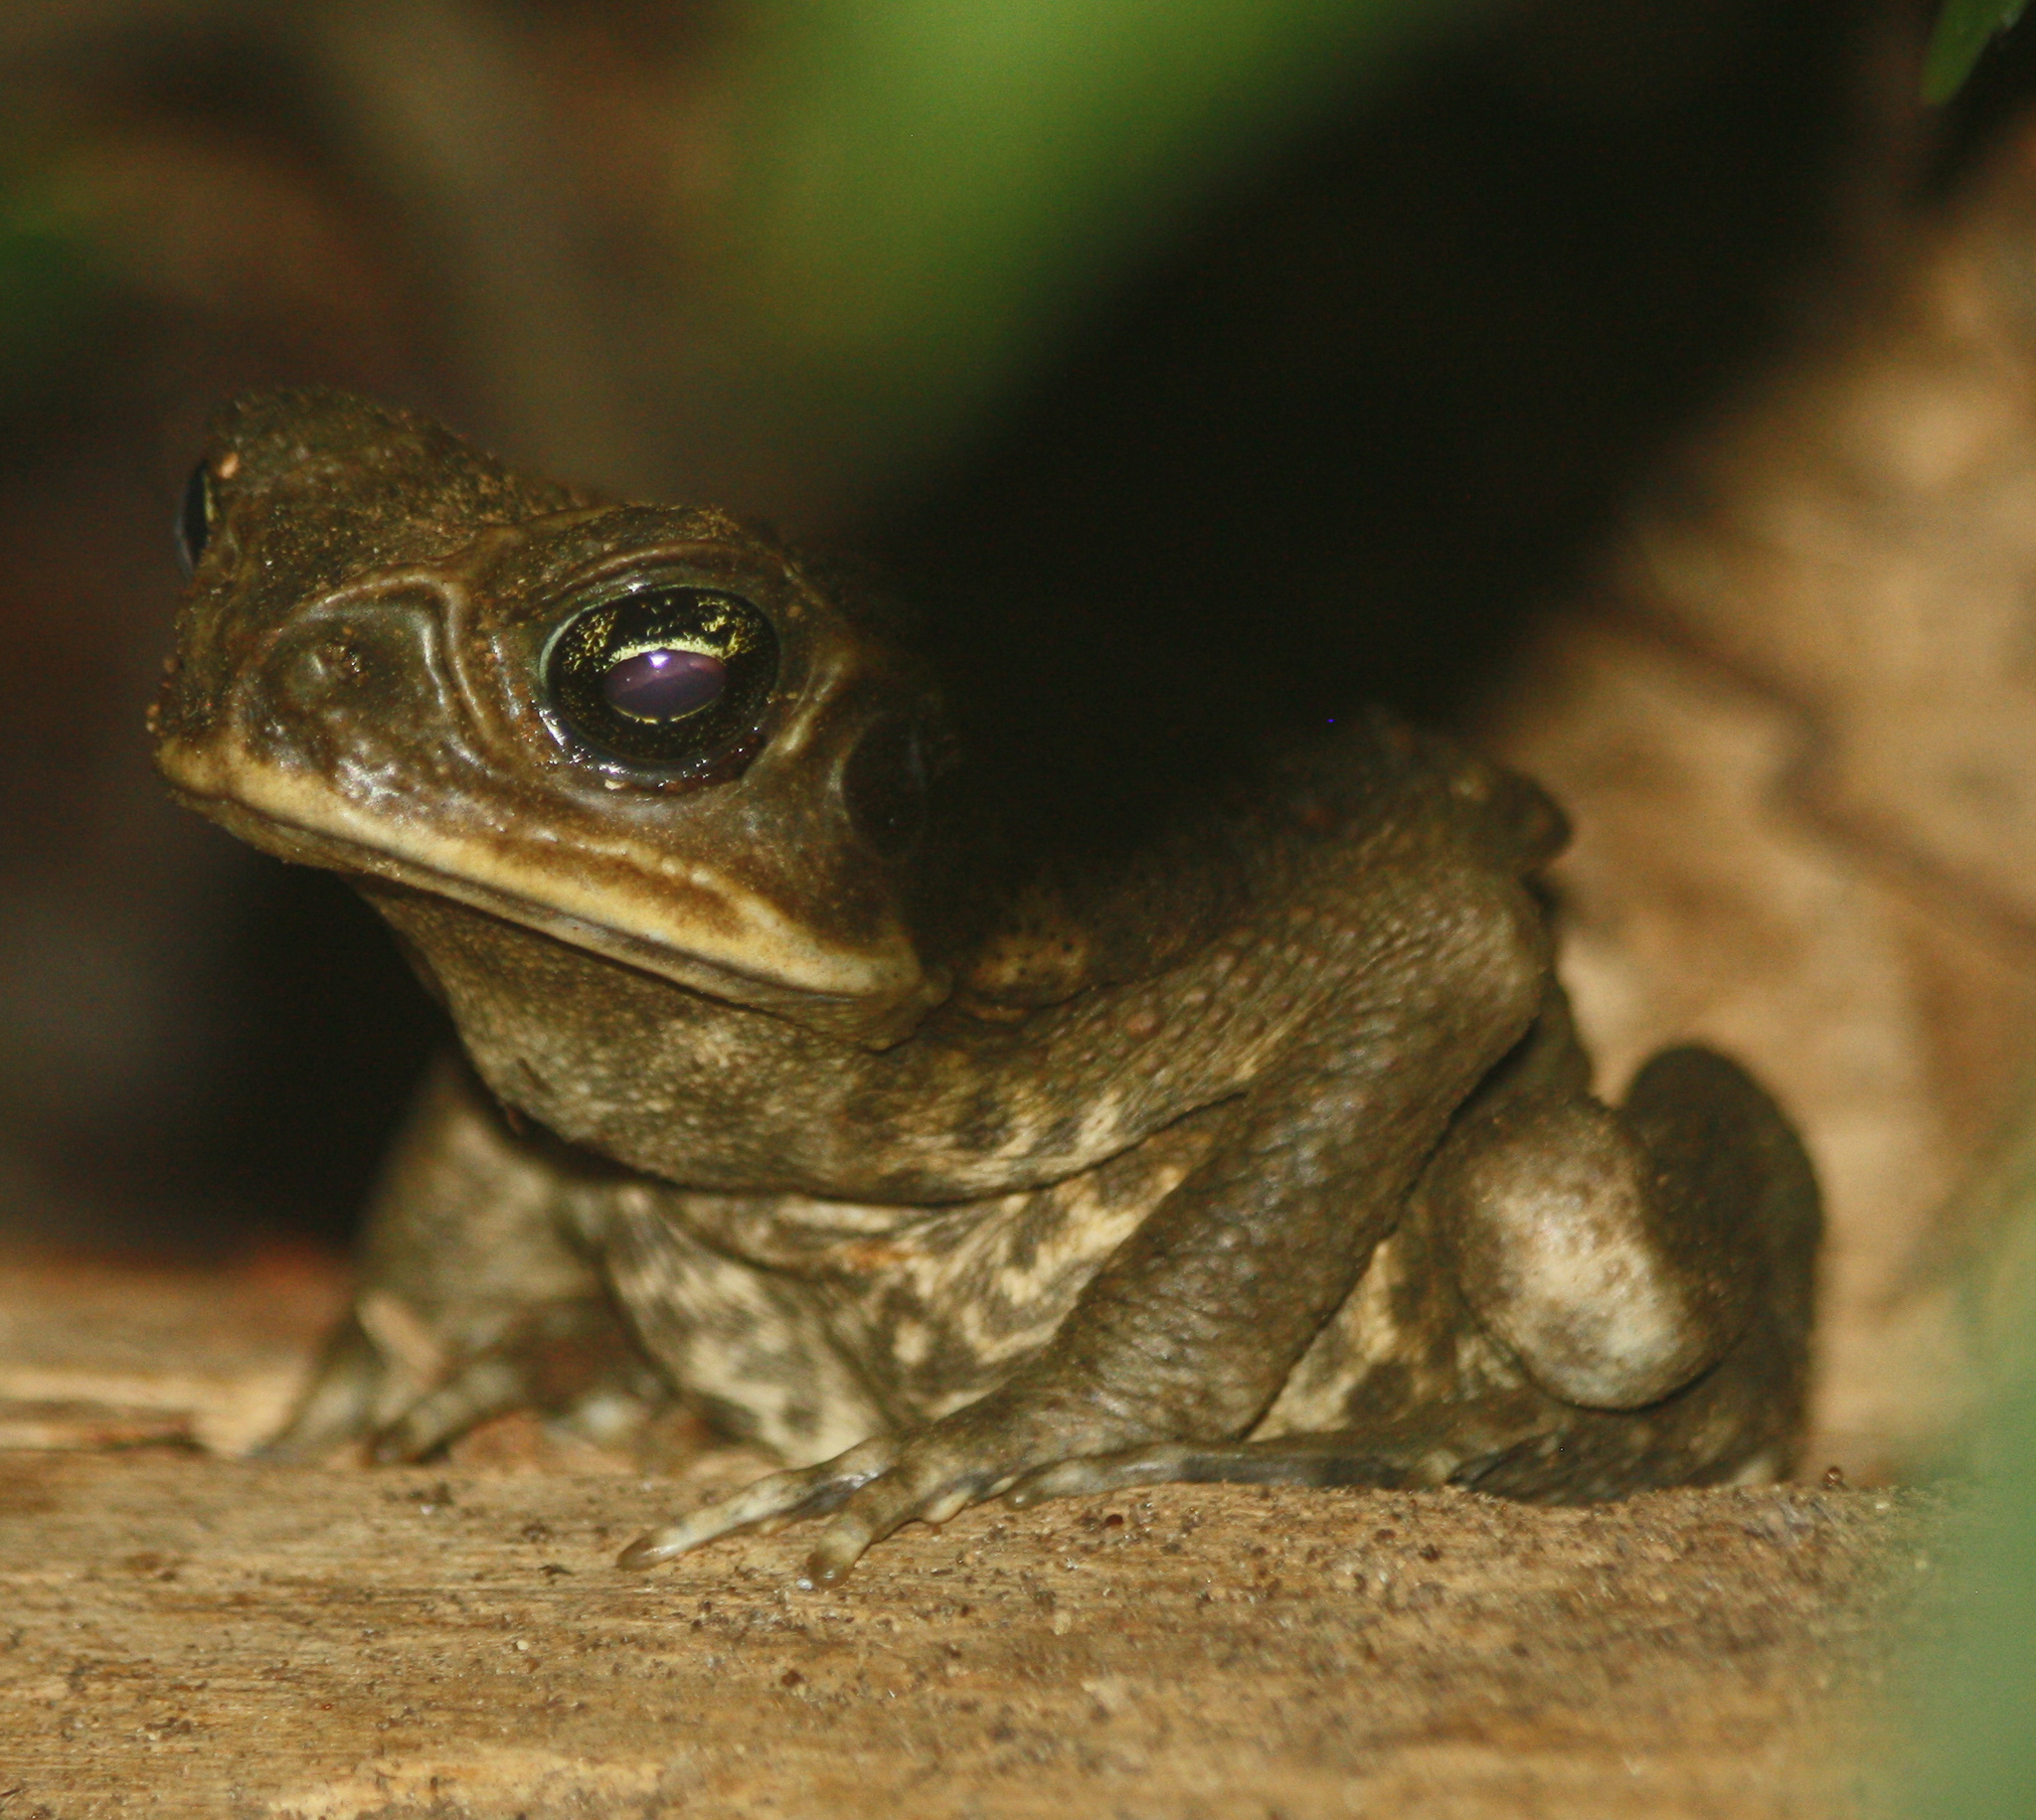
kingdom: Animalia
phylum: Chordata
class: Amphibia
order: Anura
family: Bufonidae
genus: Rhinella
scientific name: Rhinella horribilis
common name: Mesoamerican cane toad
